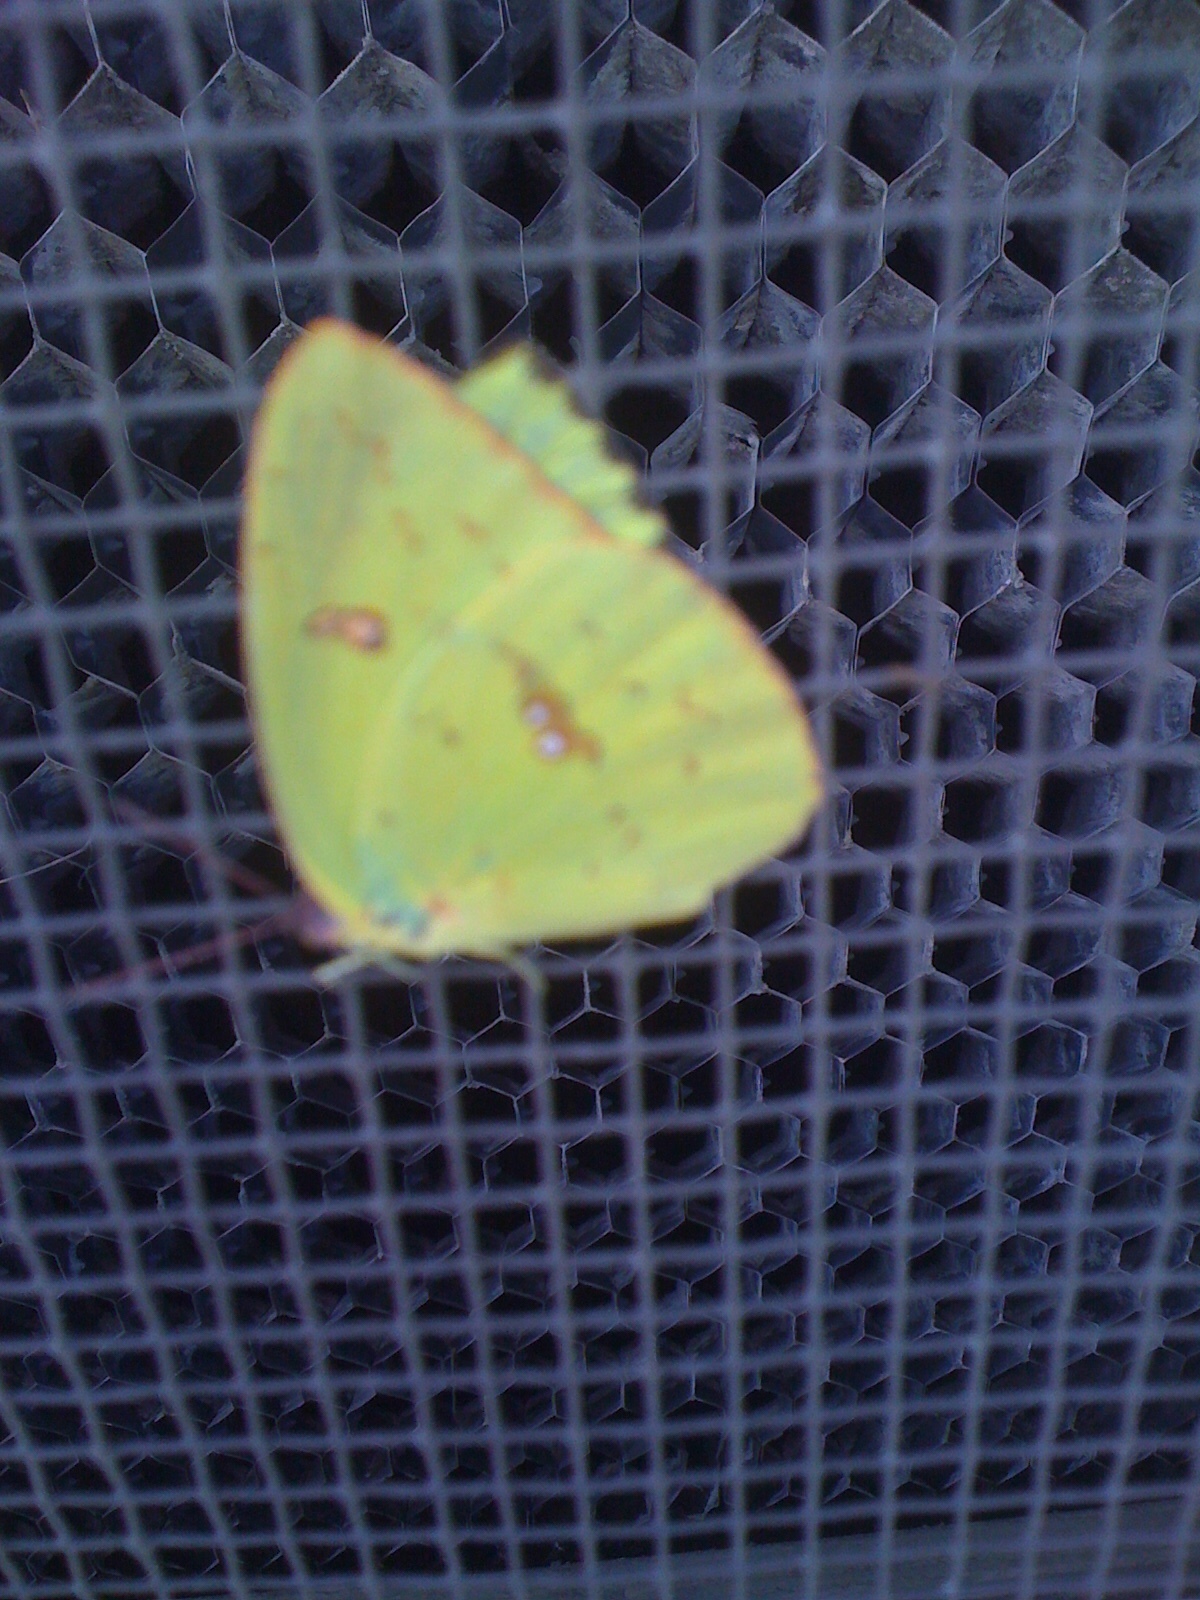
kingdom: Animalia
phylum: Arthropoda
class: Insecta
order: Lepidoptera
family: Pieridae
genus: Phoebis
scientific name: Phoebis sennae
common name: Cloudless sulphur
